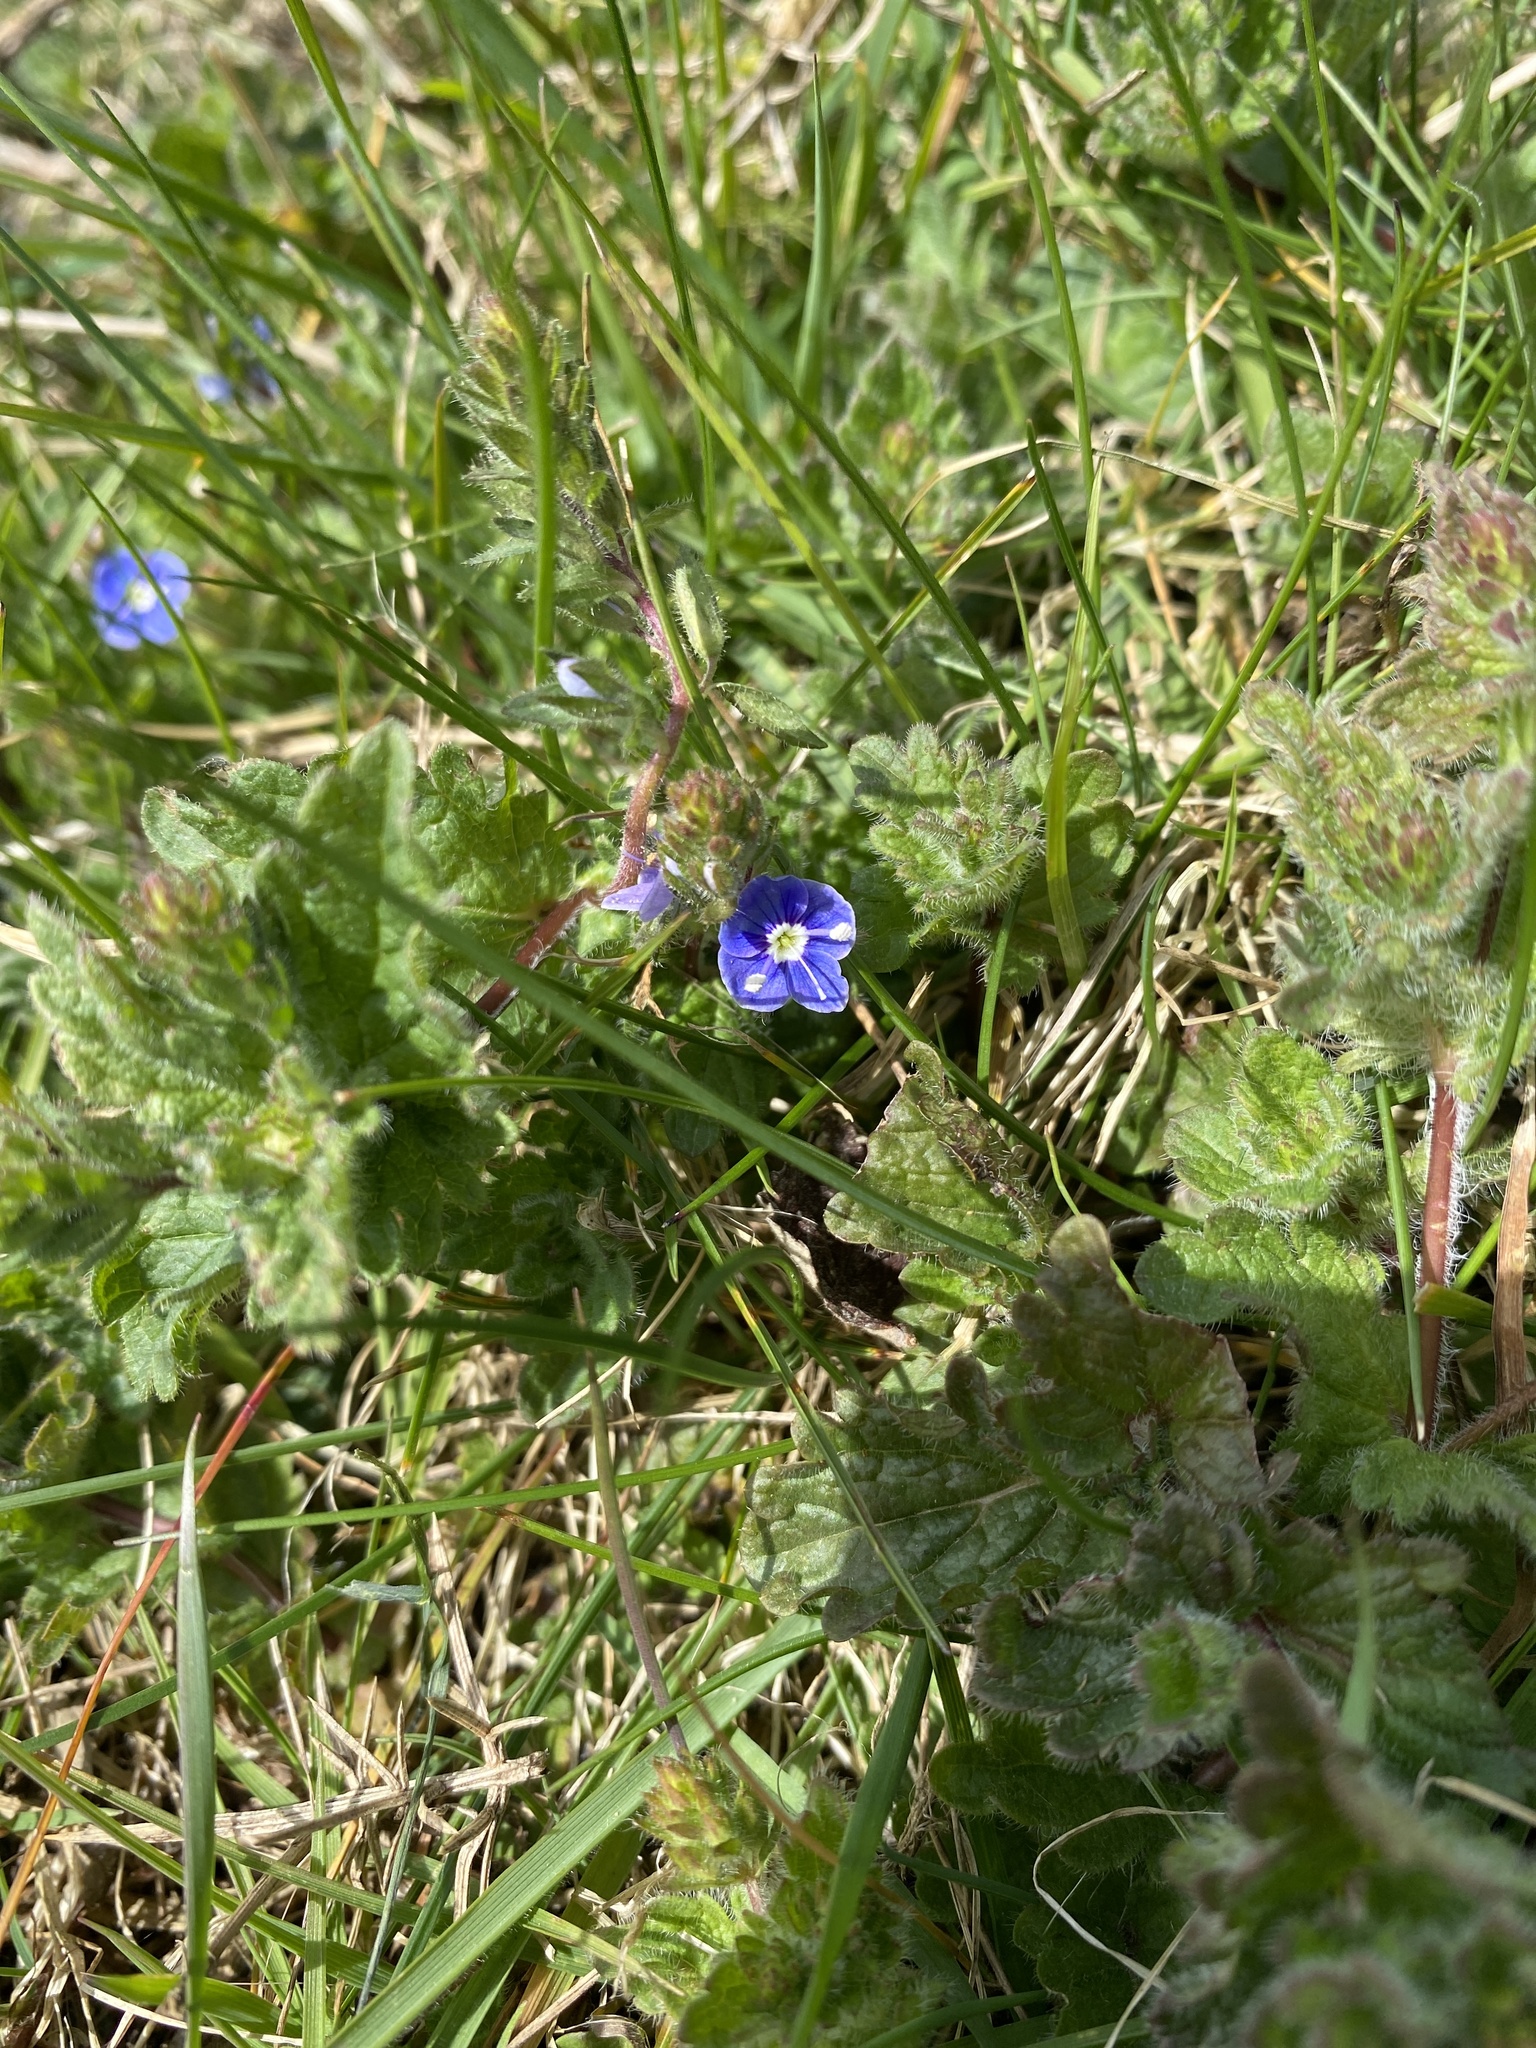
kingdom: Plantae
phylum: Tracheophyta
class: Magnoliopsida
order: Lamiales
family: Plantaginaceae
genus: Veronica
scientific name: Veronica chamaedrys
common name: Germander speedwell
